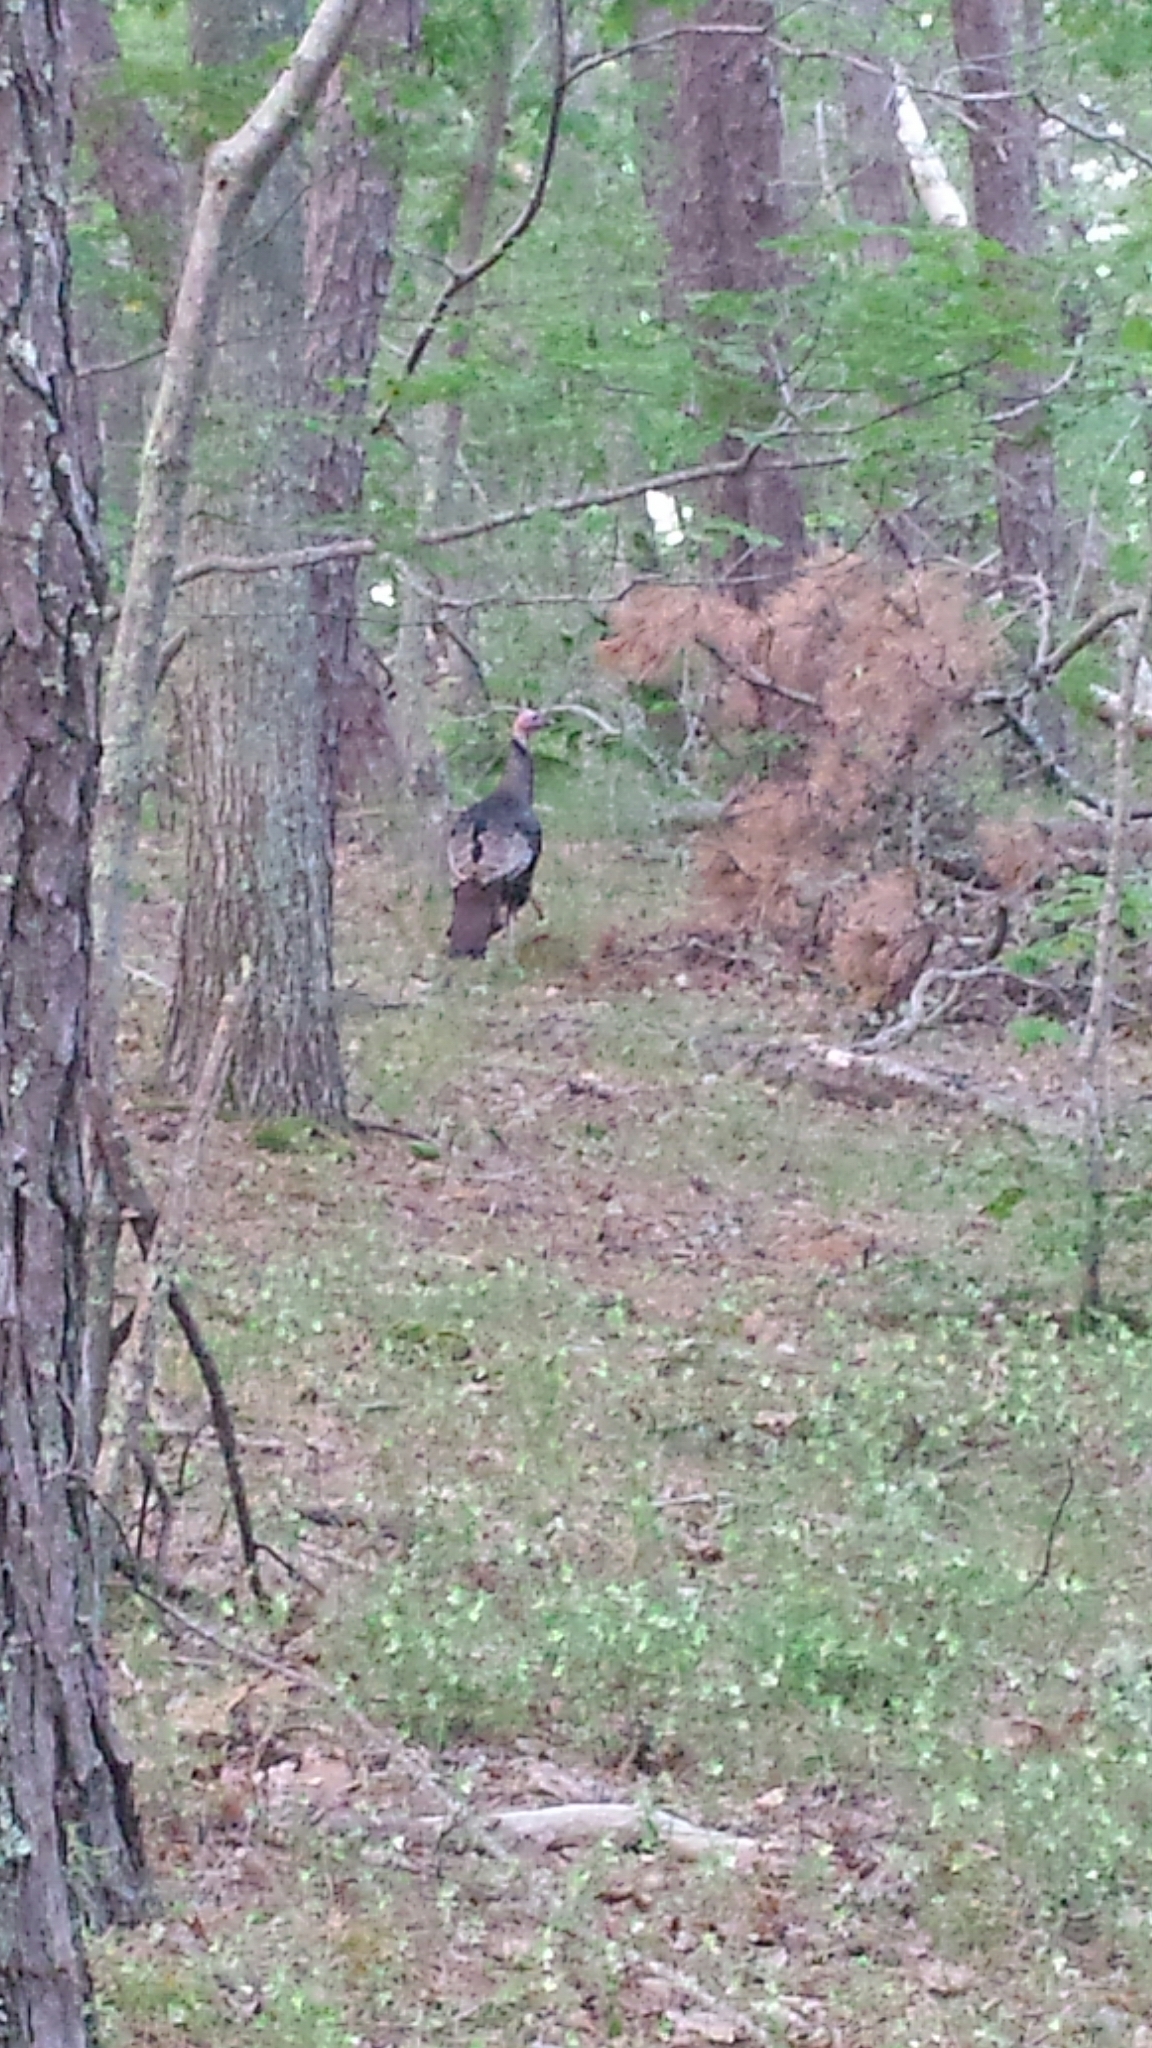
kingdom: Animalia
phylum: Chordata
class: Aves
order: Galliformes
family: Phasianidae
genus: Meleagris
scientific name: Meleagris gallopavo
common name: Wild turkey
